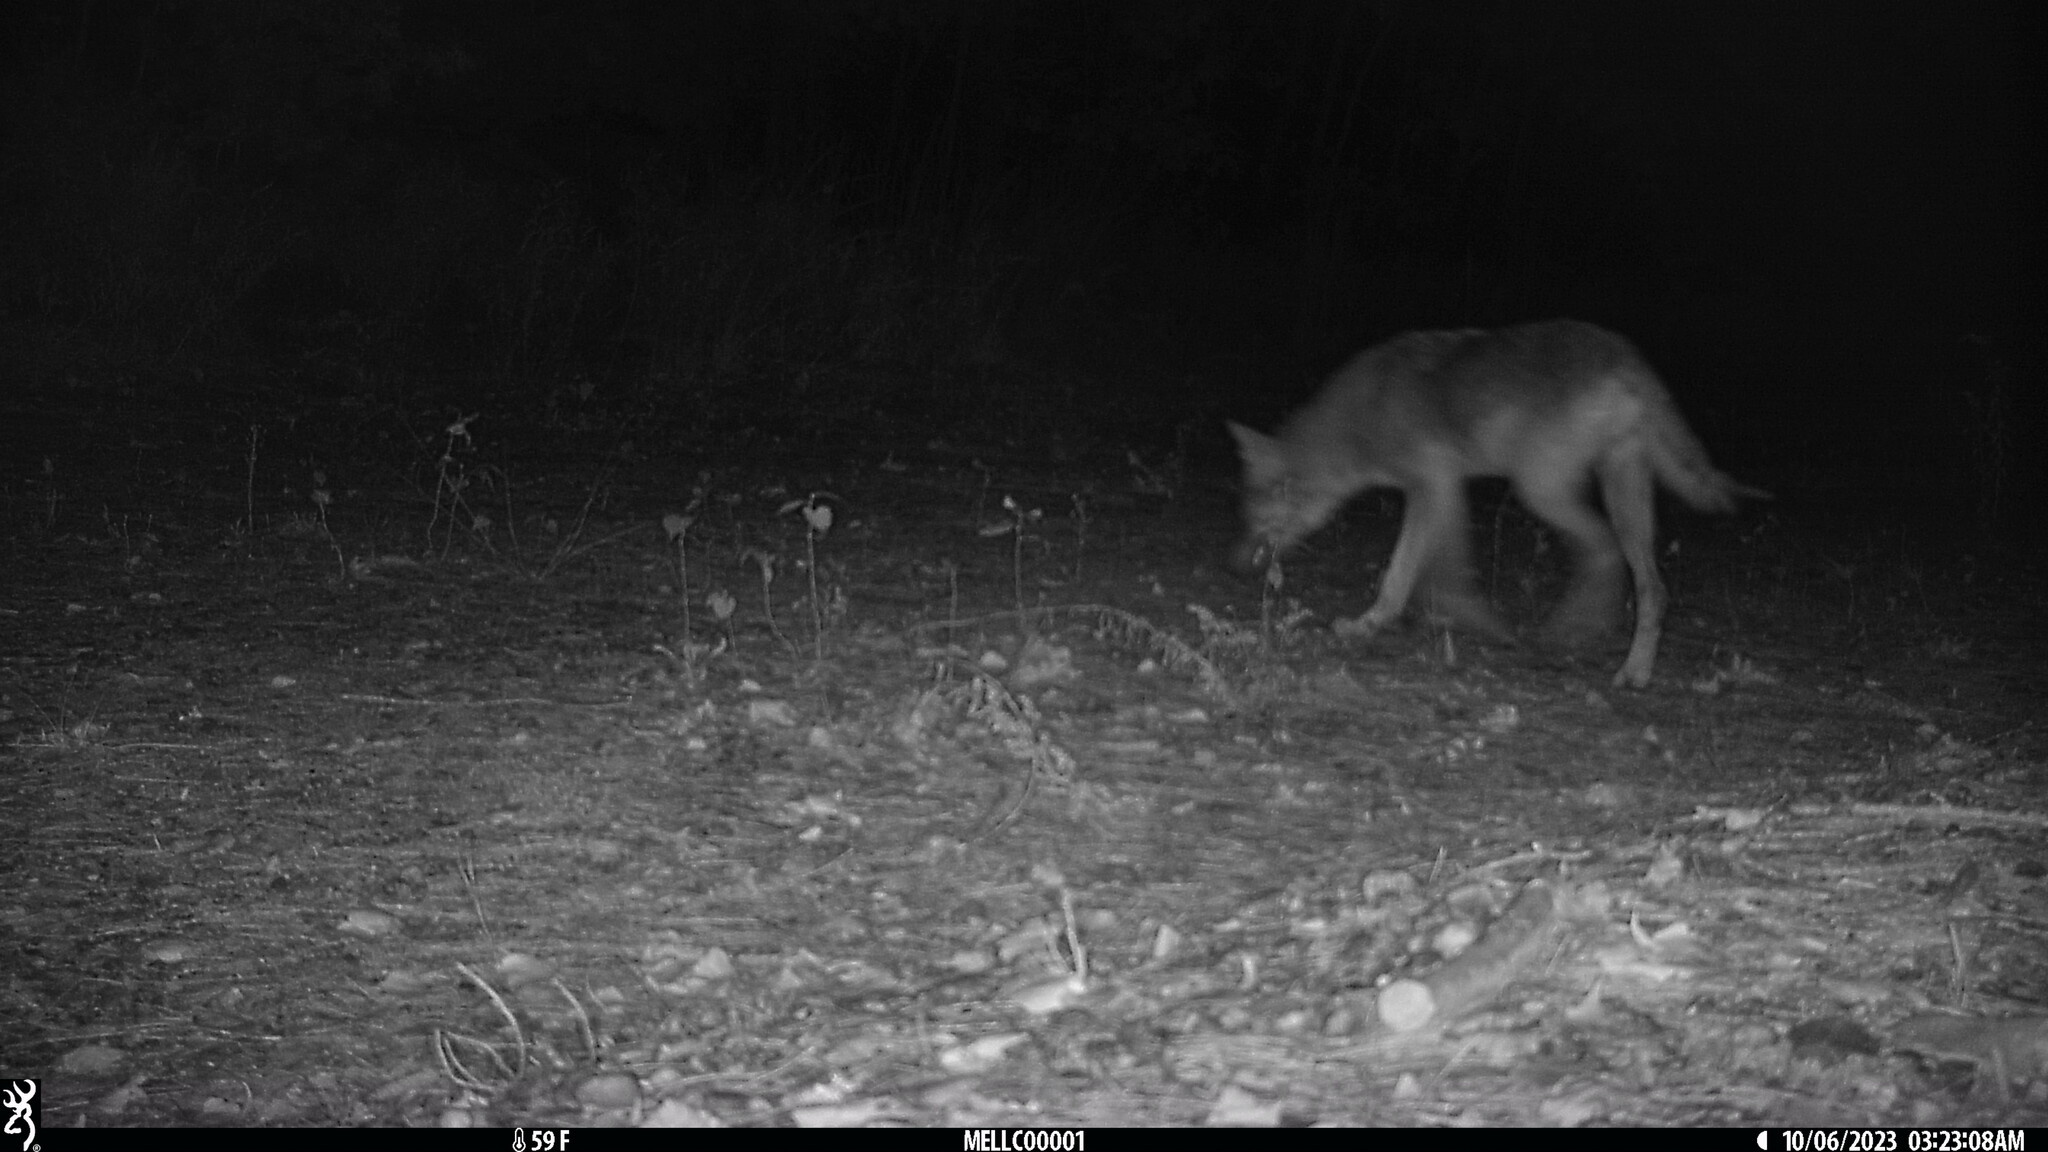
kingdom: Animalia
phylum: Chordata
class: Mammalia
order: Carnivora
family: Canidae
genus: Canis
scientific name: Canis latrans
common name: Coyote
